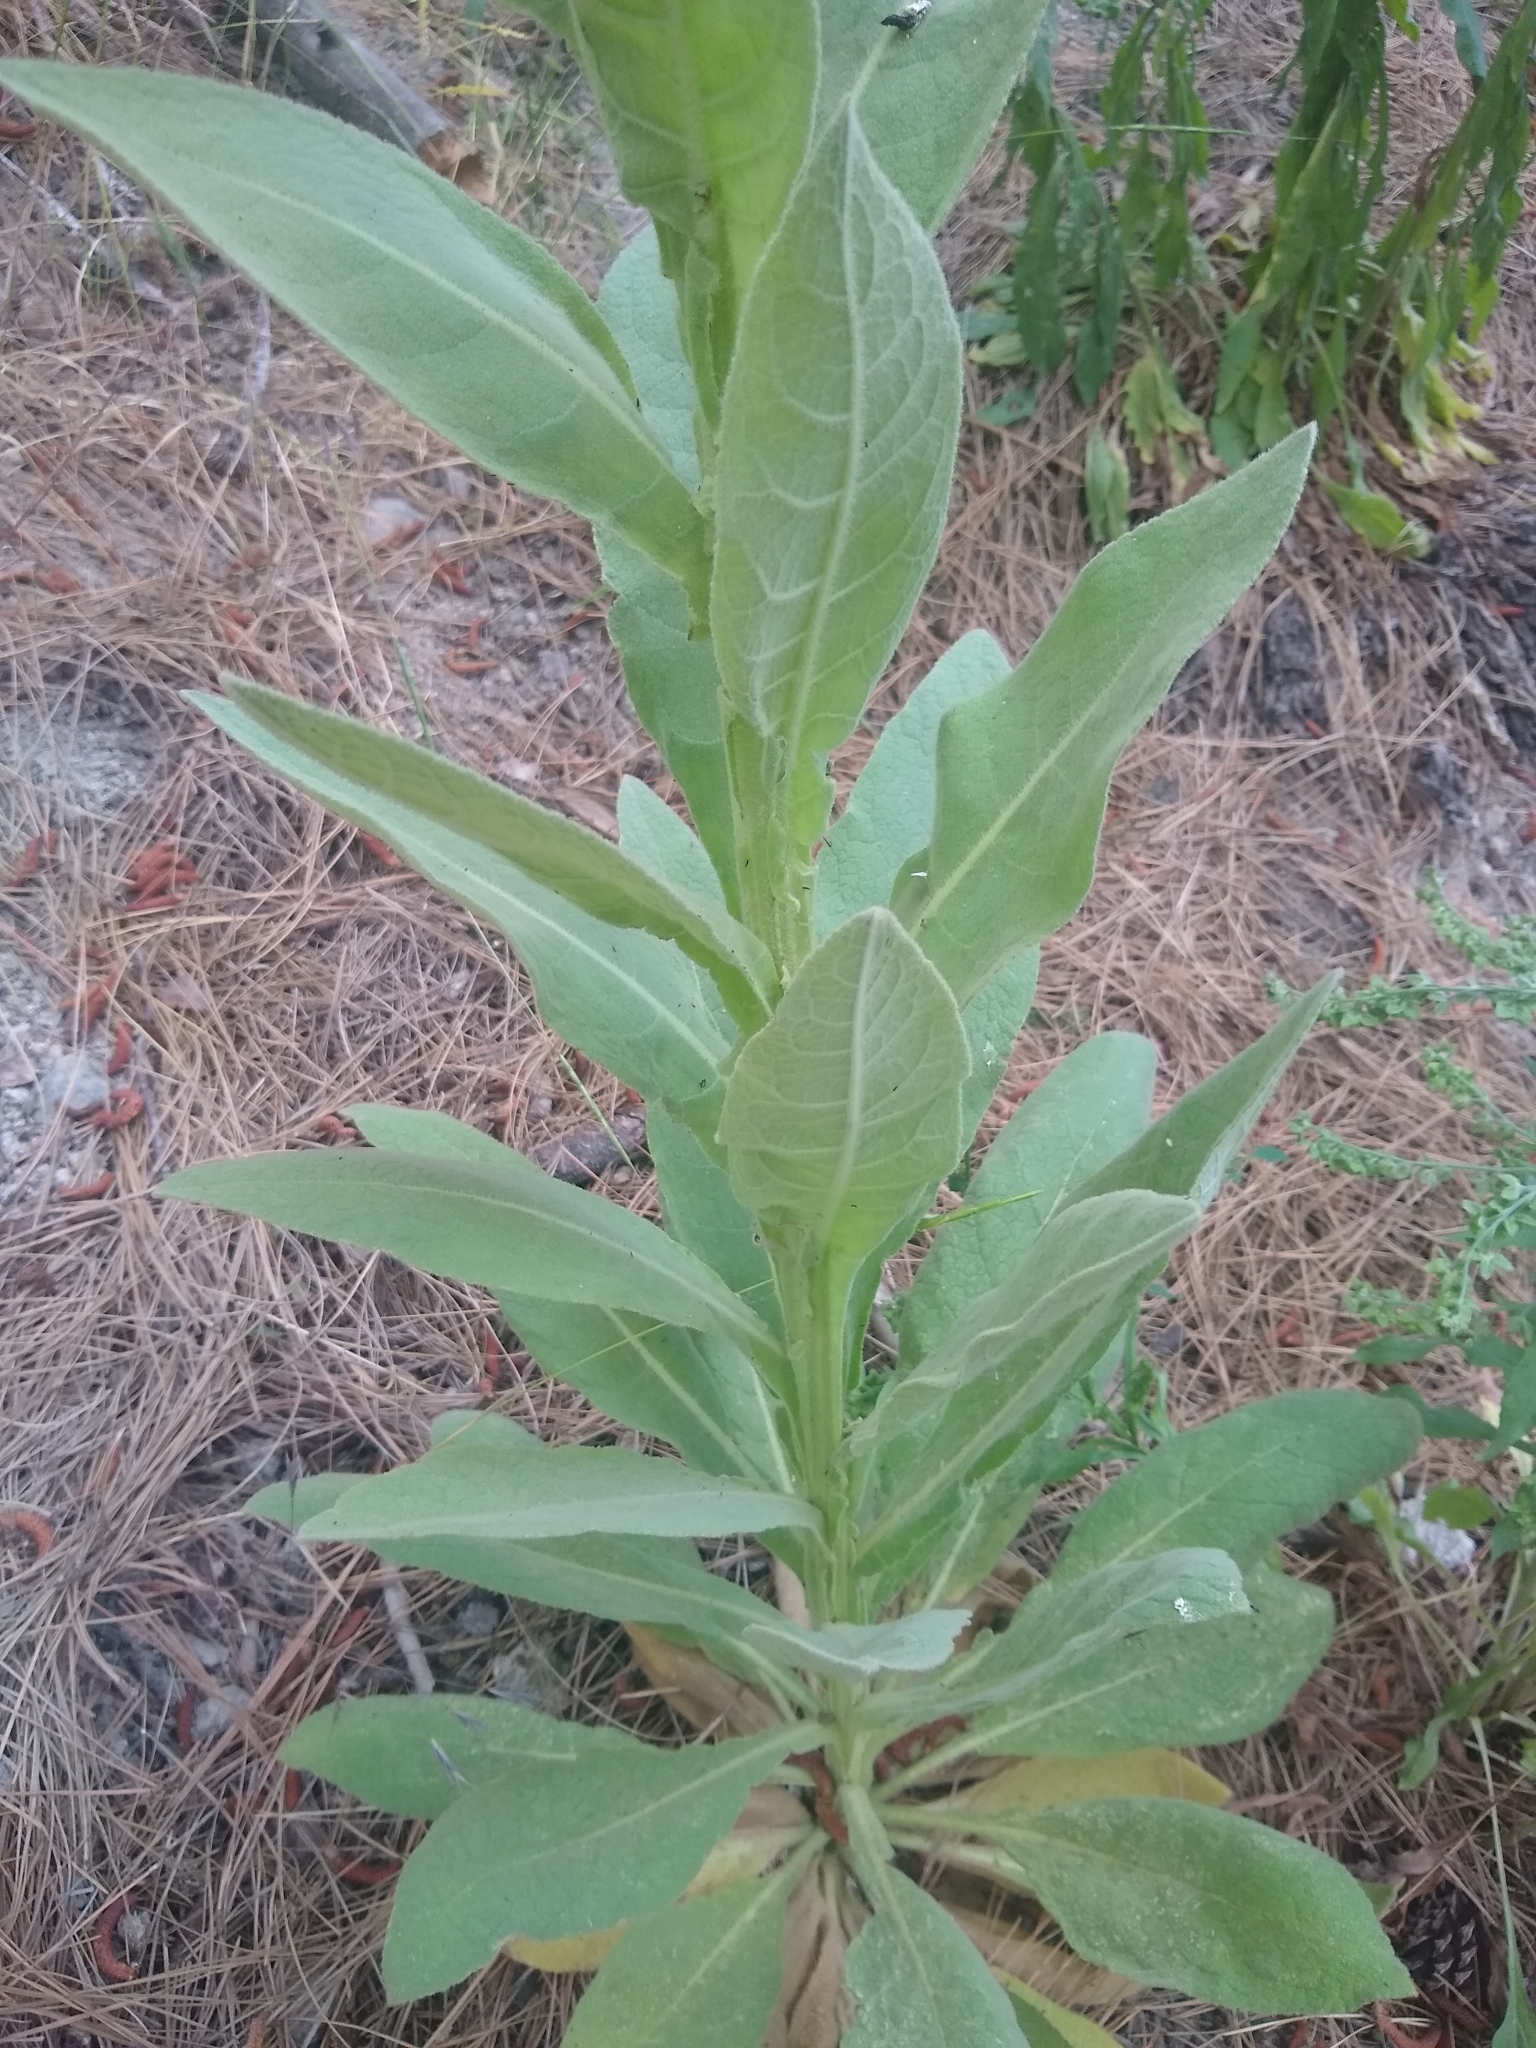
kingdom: Plantae
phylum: Tracheophyta
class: Magnoliopsida
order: Lamiales
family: Scrophulariaceae
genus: Verbascum
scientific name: Verbascum thapsus
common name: Common mullein
